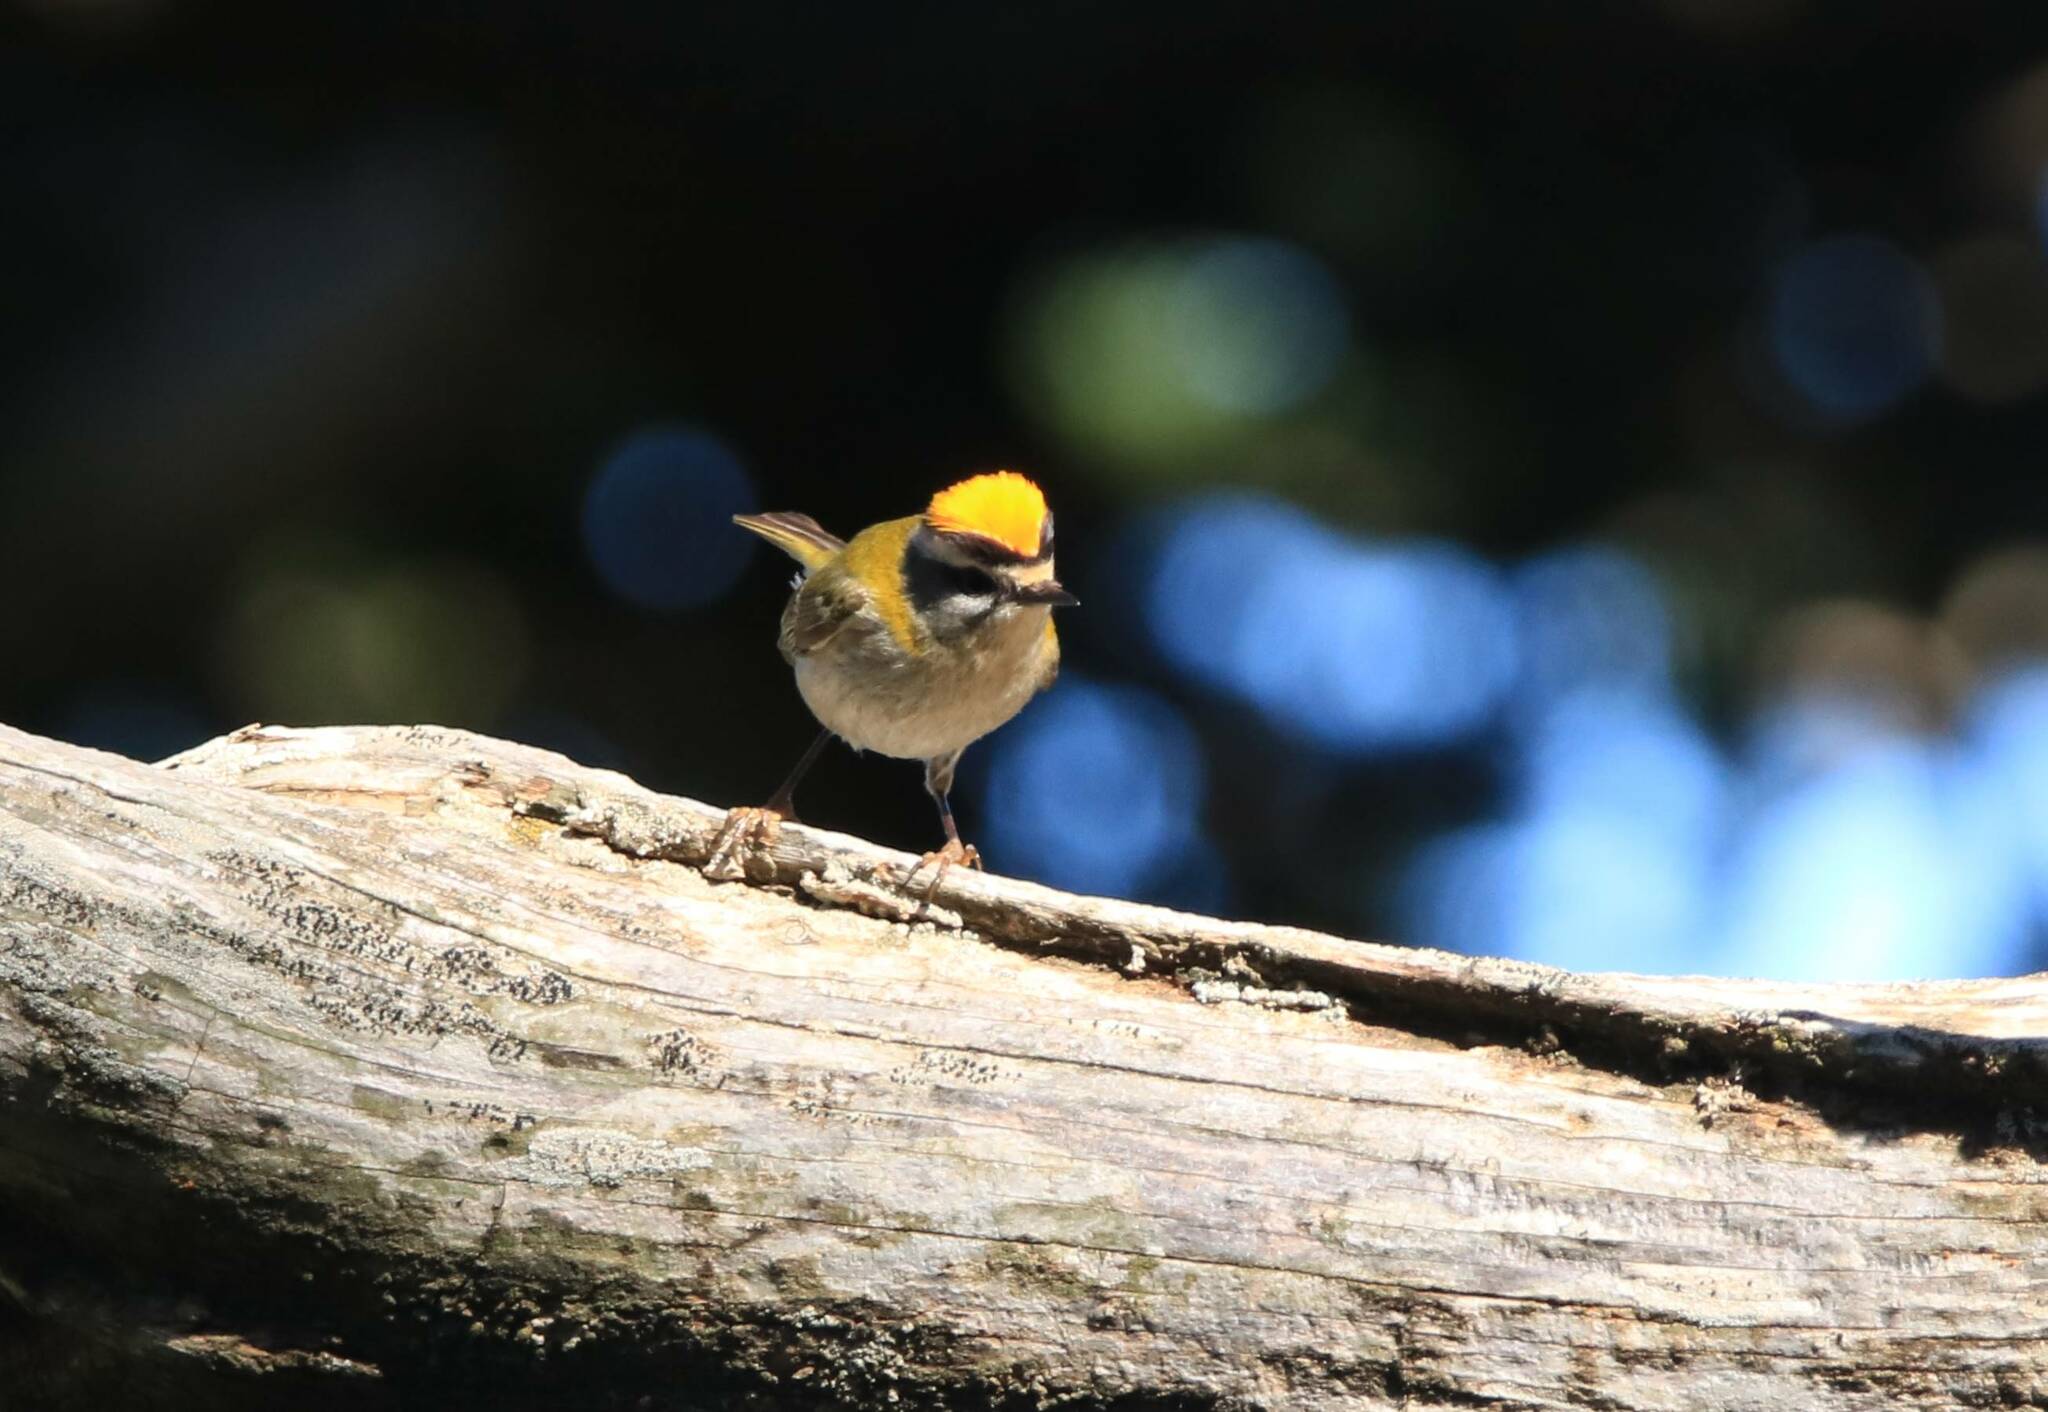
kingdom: Animalia
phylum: Chordata
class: Aves
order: Passeriformes
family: Regulidae
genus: Regulus
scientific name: Regulus ignicapilla
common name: Firecrest
